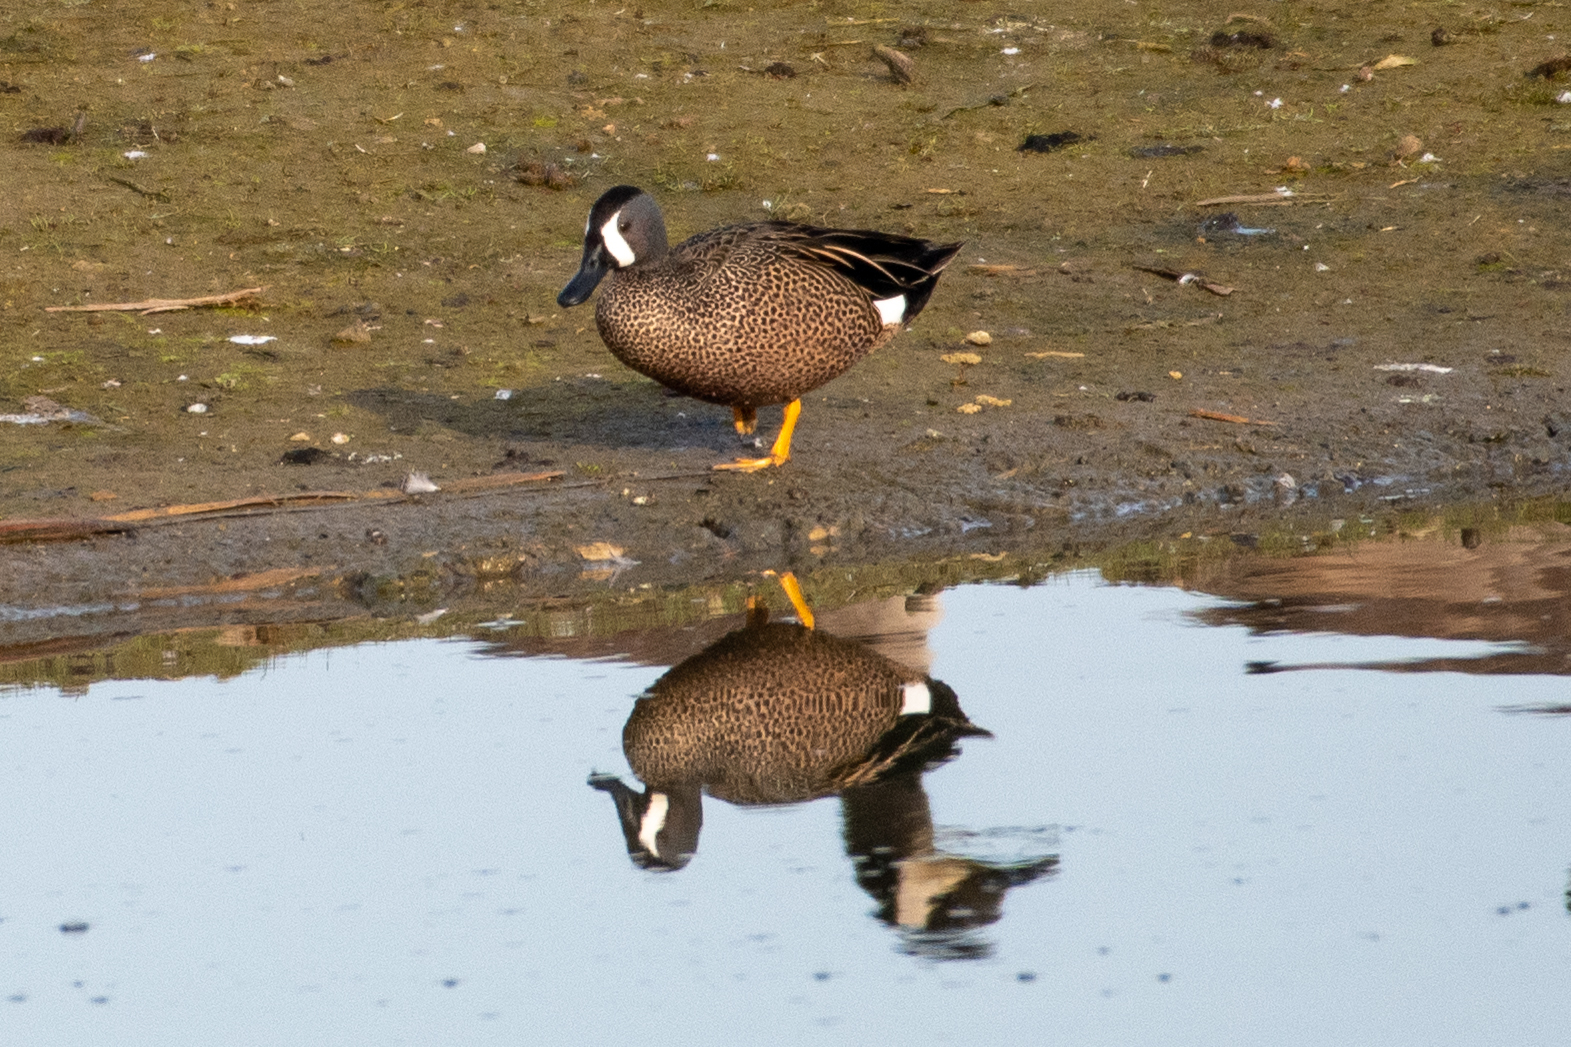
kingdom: Animalia
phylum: Chordata
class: Aves
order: Anseriformes
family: Anatidae
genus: Spatula
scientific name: Spatula discors
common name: Blue-winged teal
